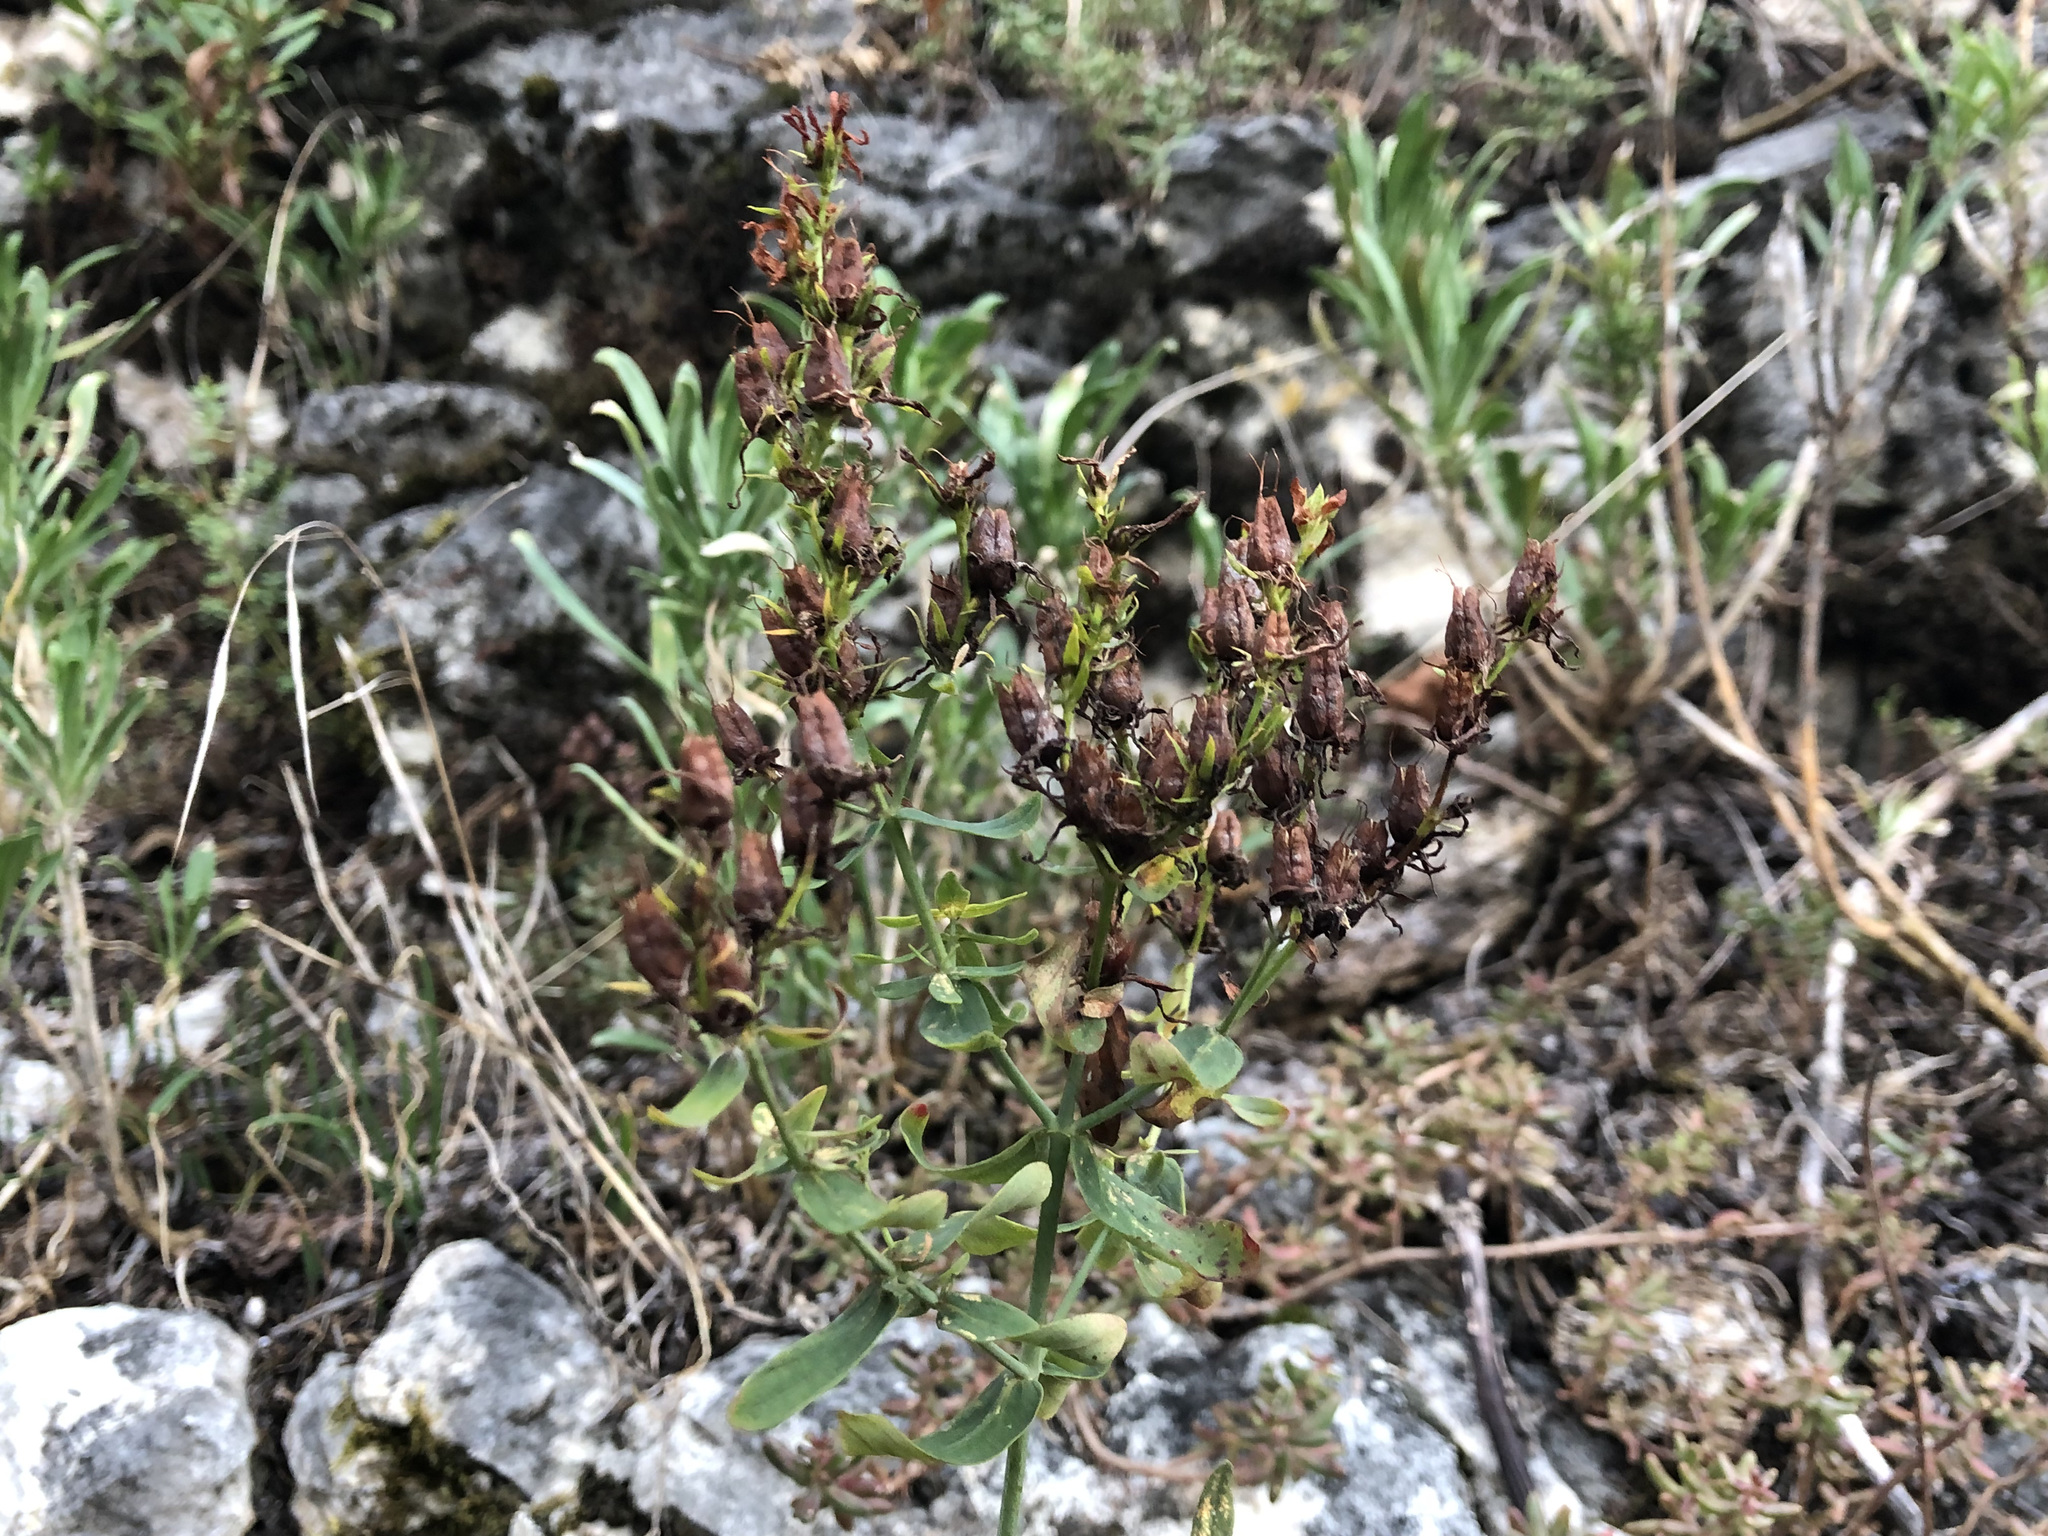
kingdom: Plantae
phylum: Tracheophyta
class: Magnoliopsida
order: Malpighiales
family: Hypericaceae
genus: Hypericum
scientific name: Hypericum perforatum
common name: Common st. johnswort
